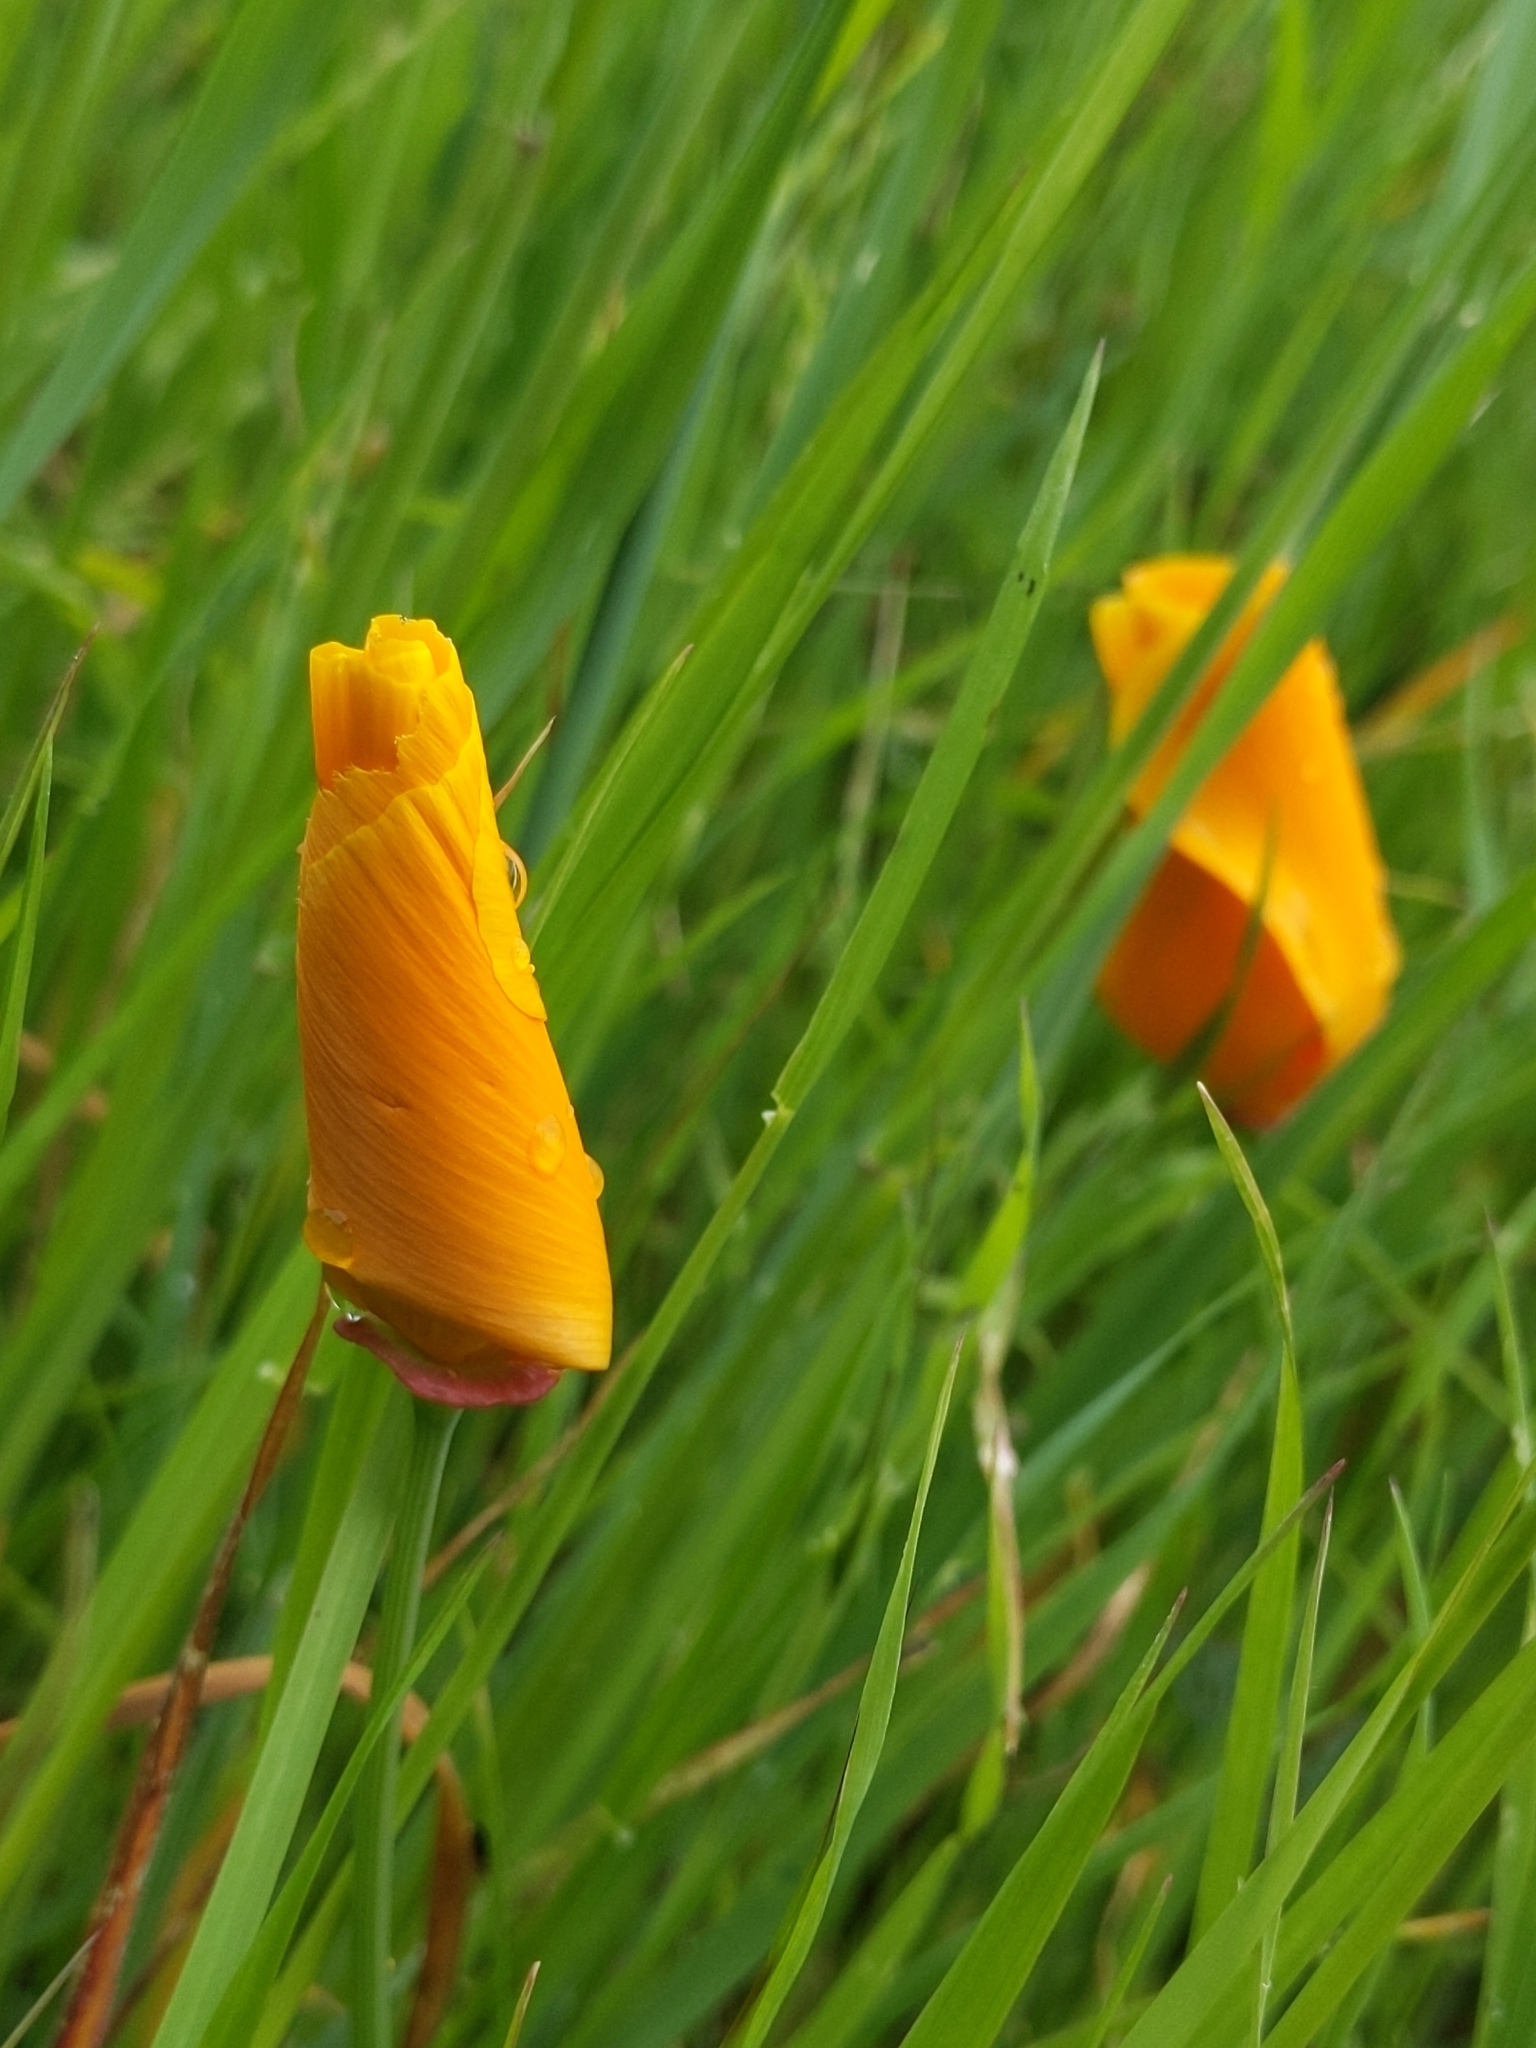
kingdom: Plantae
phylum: Tracheophyta
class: Magnoliopsida
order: Ranunculales
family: Papaveraceae
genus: Eschscholzia
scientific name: Eschscholzia californica
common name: California poppy
